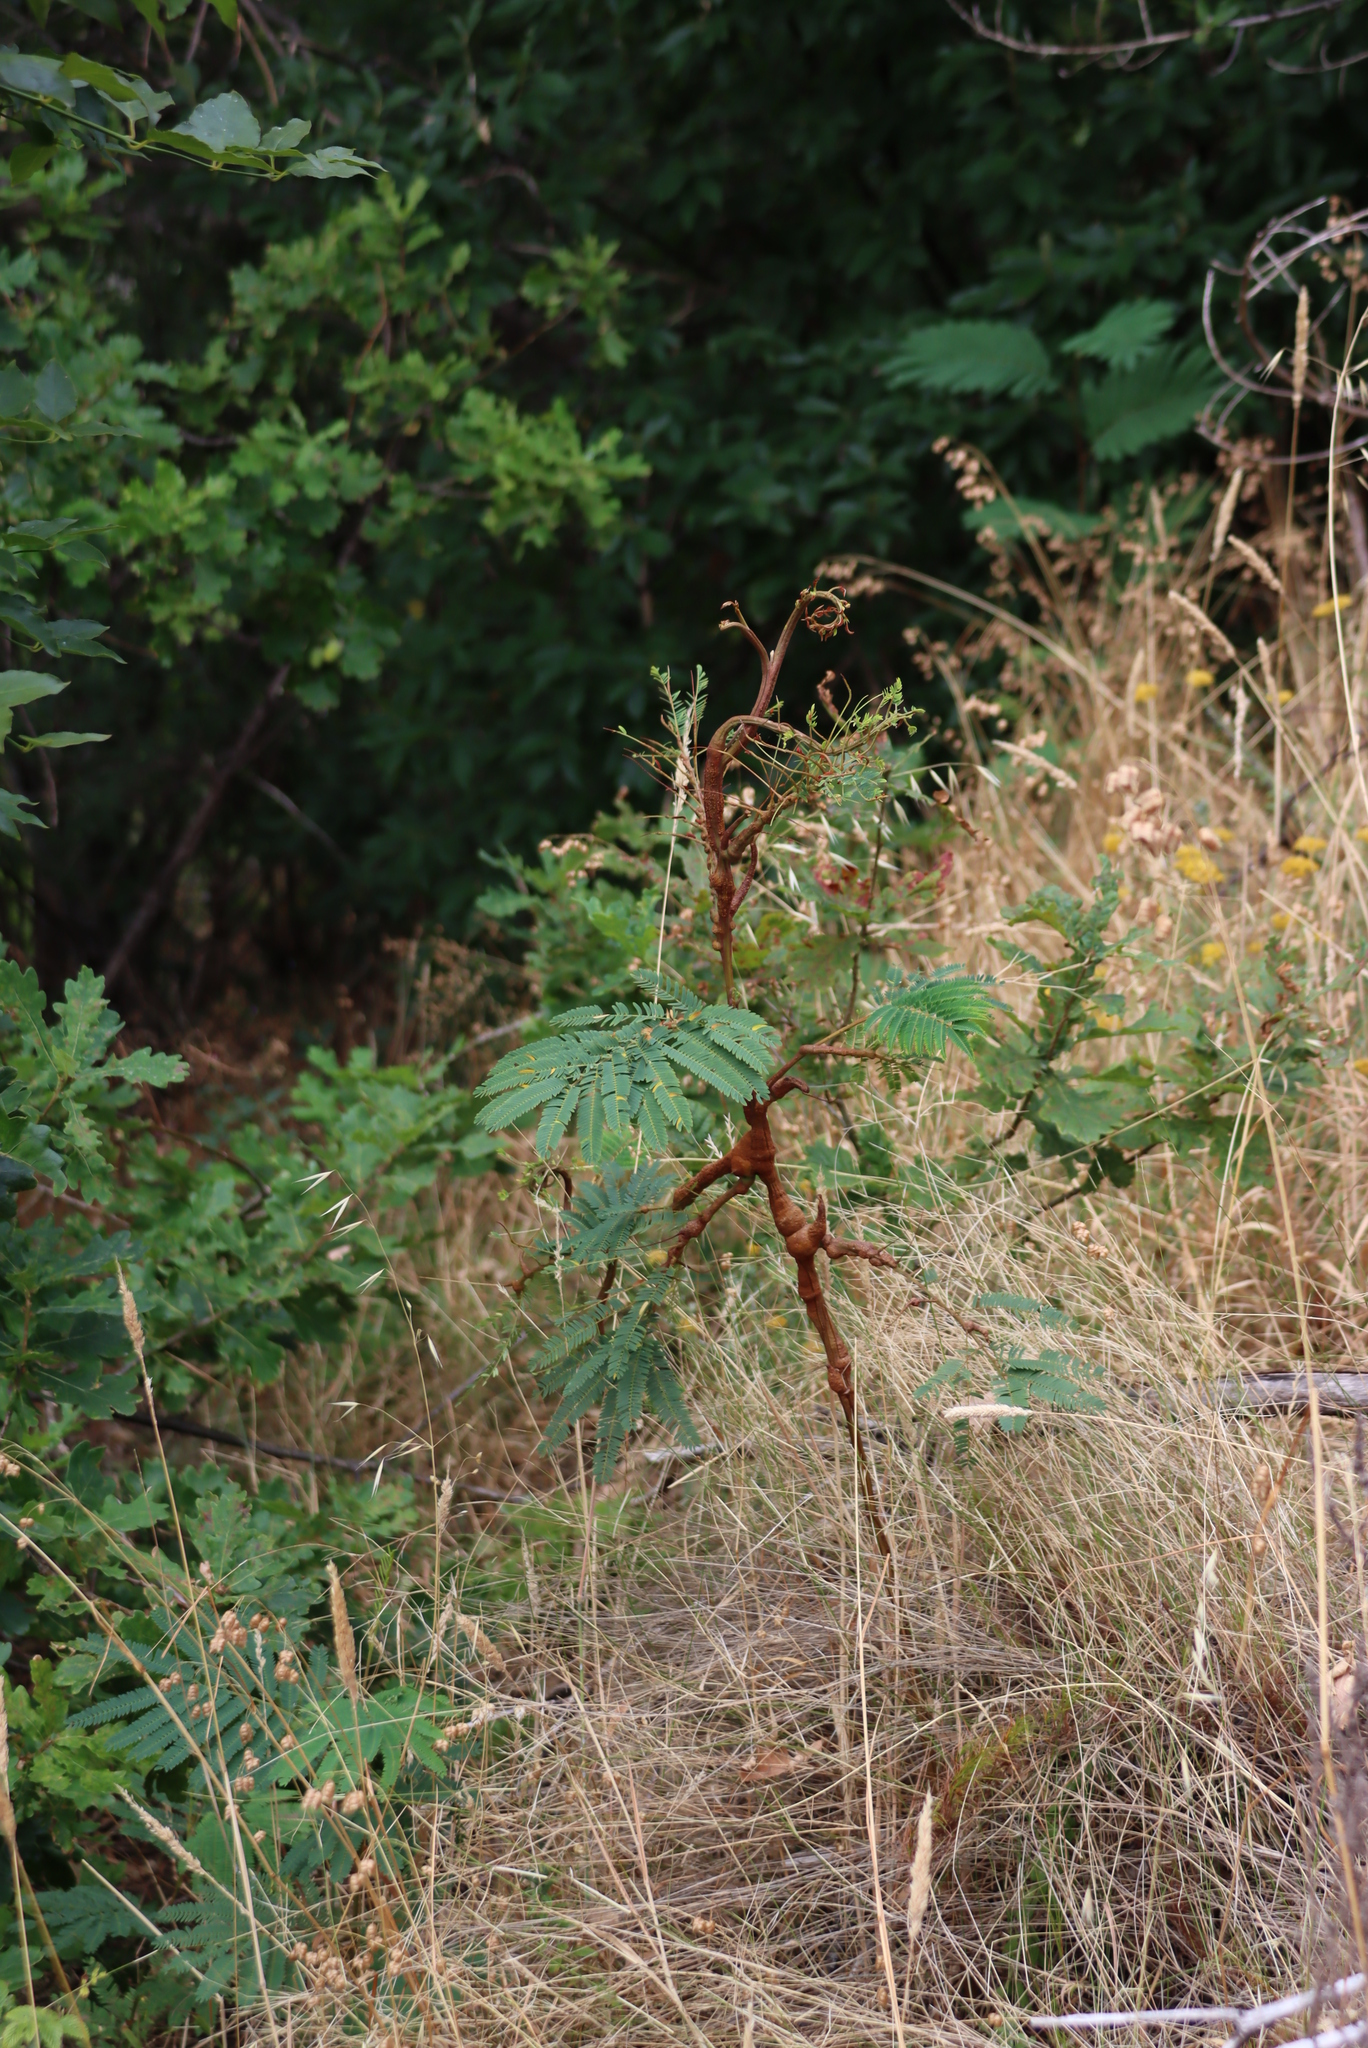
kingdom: Plantae
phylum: Tracheophyta
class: Magnoliopsida
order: Fabales
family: Fabaceae
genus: Paraserianthes
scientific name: Paraserianthes lophantha
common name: Plume albizia
